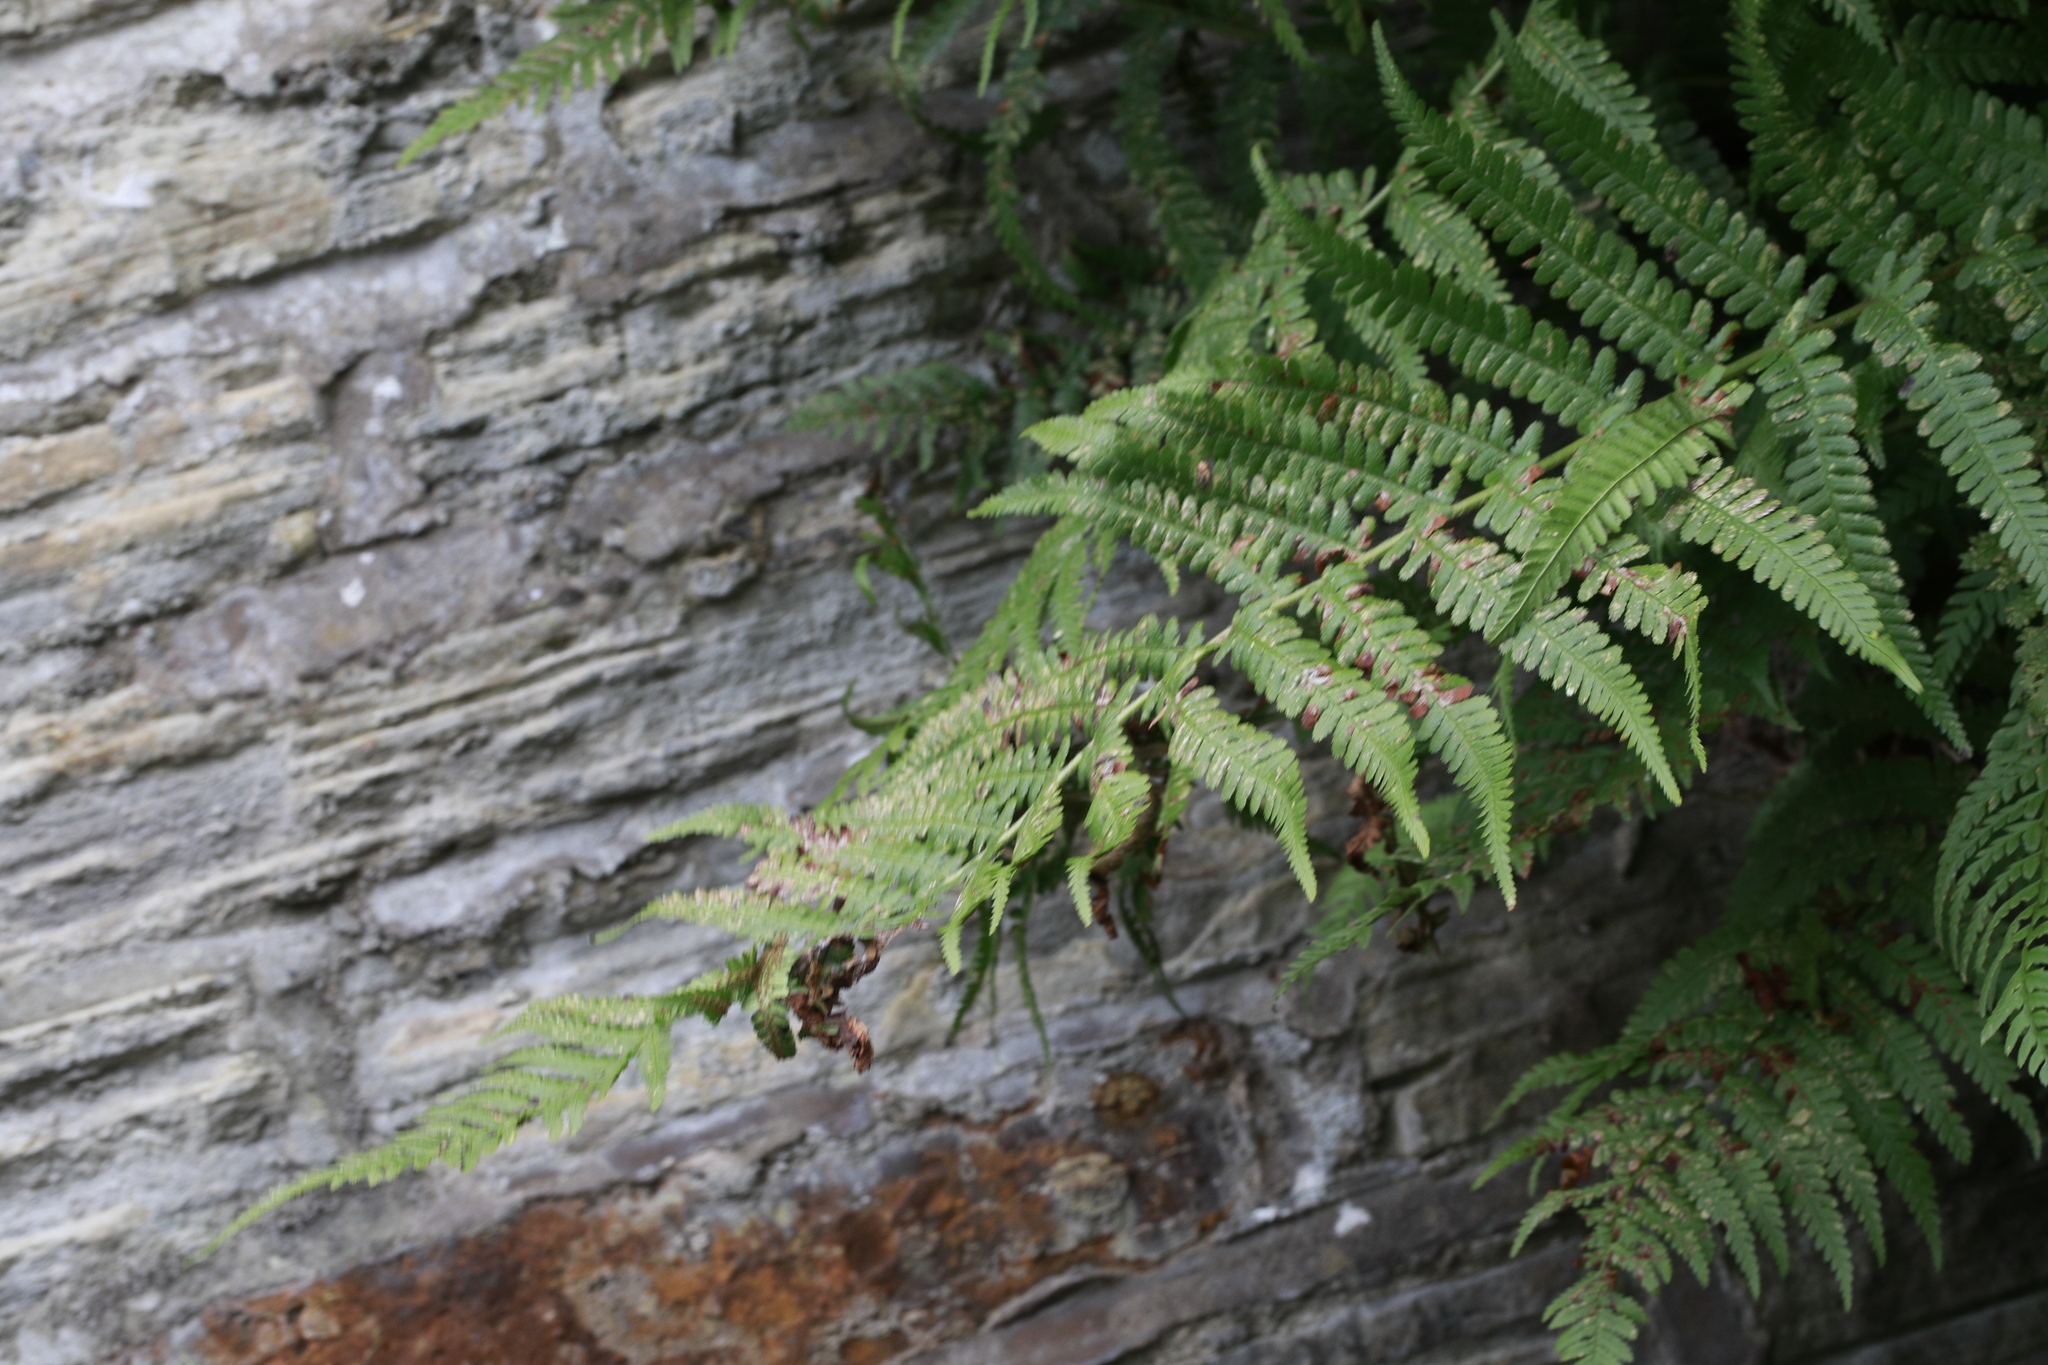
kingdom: Plantae
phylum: Tracheophyta
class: Polypodiopsida
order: Polypodiales
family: Dryopteridaceae
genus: Dryopteris
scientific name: Dryopteris filix-mas
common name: Male fern
